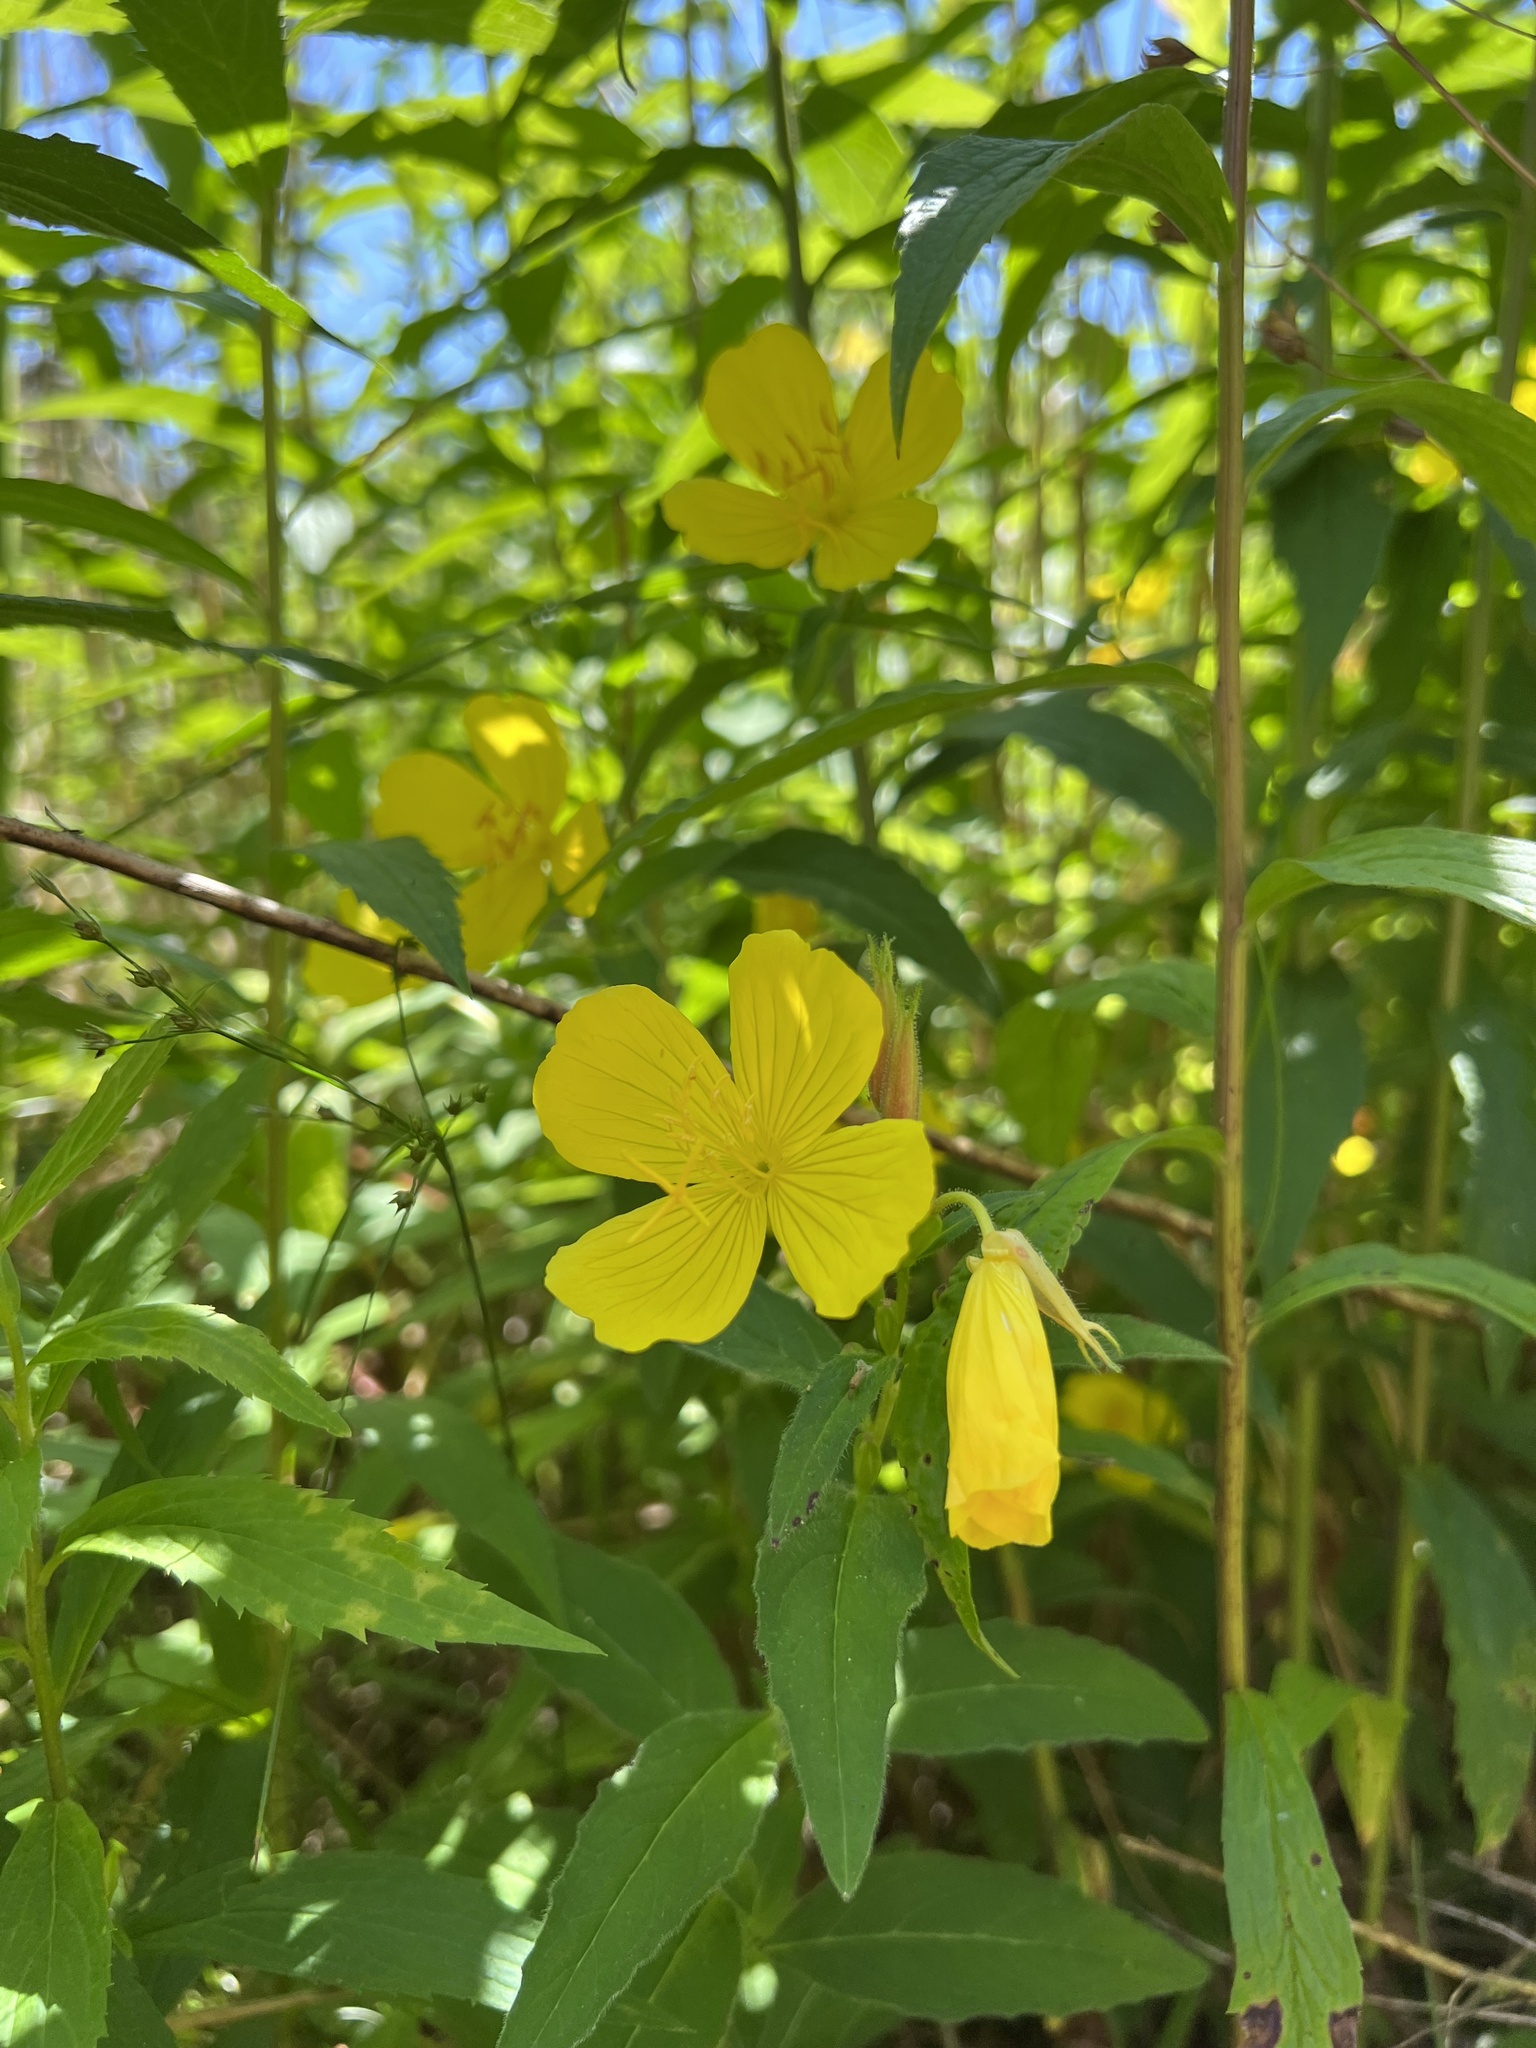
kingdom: Plantae
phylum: Tracheophyta
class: Magnoliopsida
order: Myrtales
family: Onagraceae
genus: Oenothera
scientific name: Oenothera fruticosa
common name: Southern sundrops
